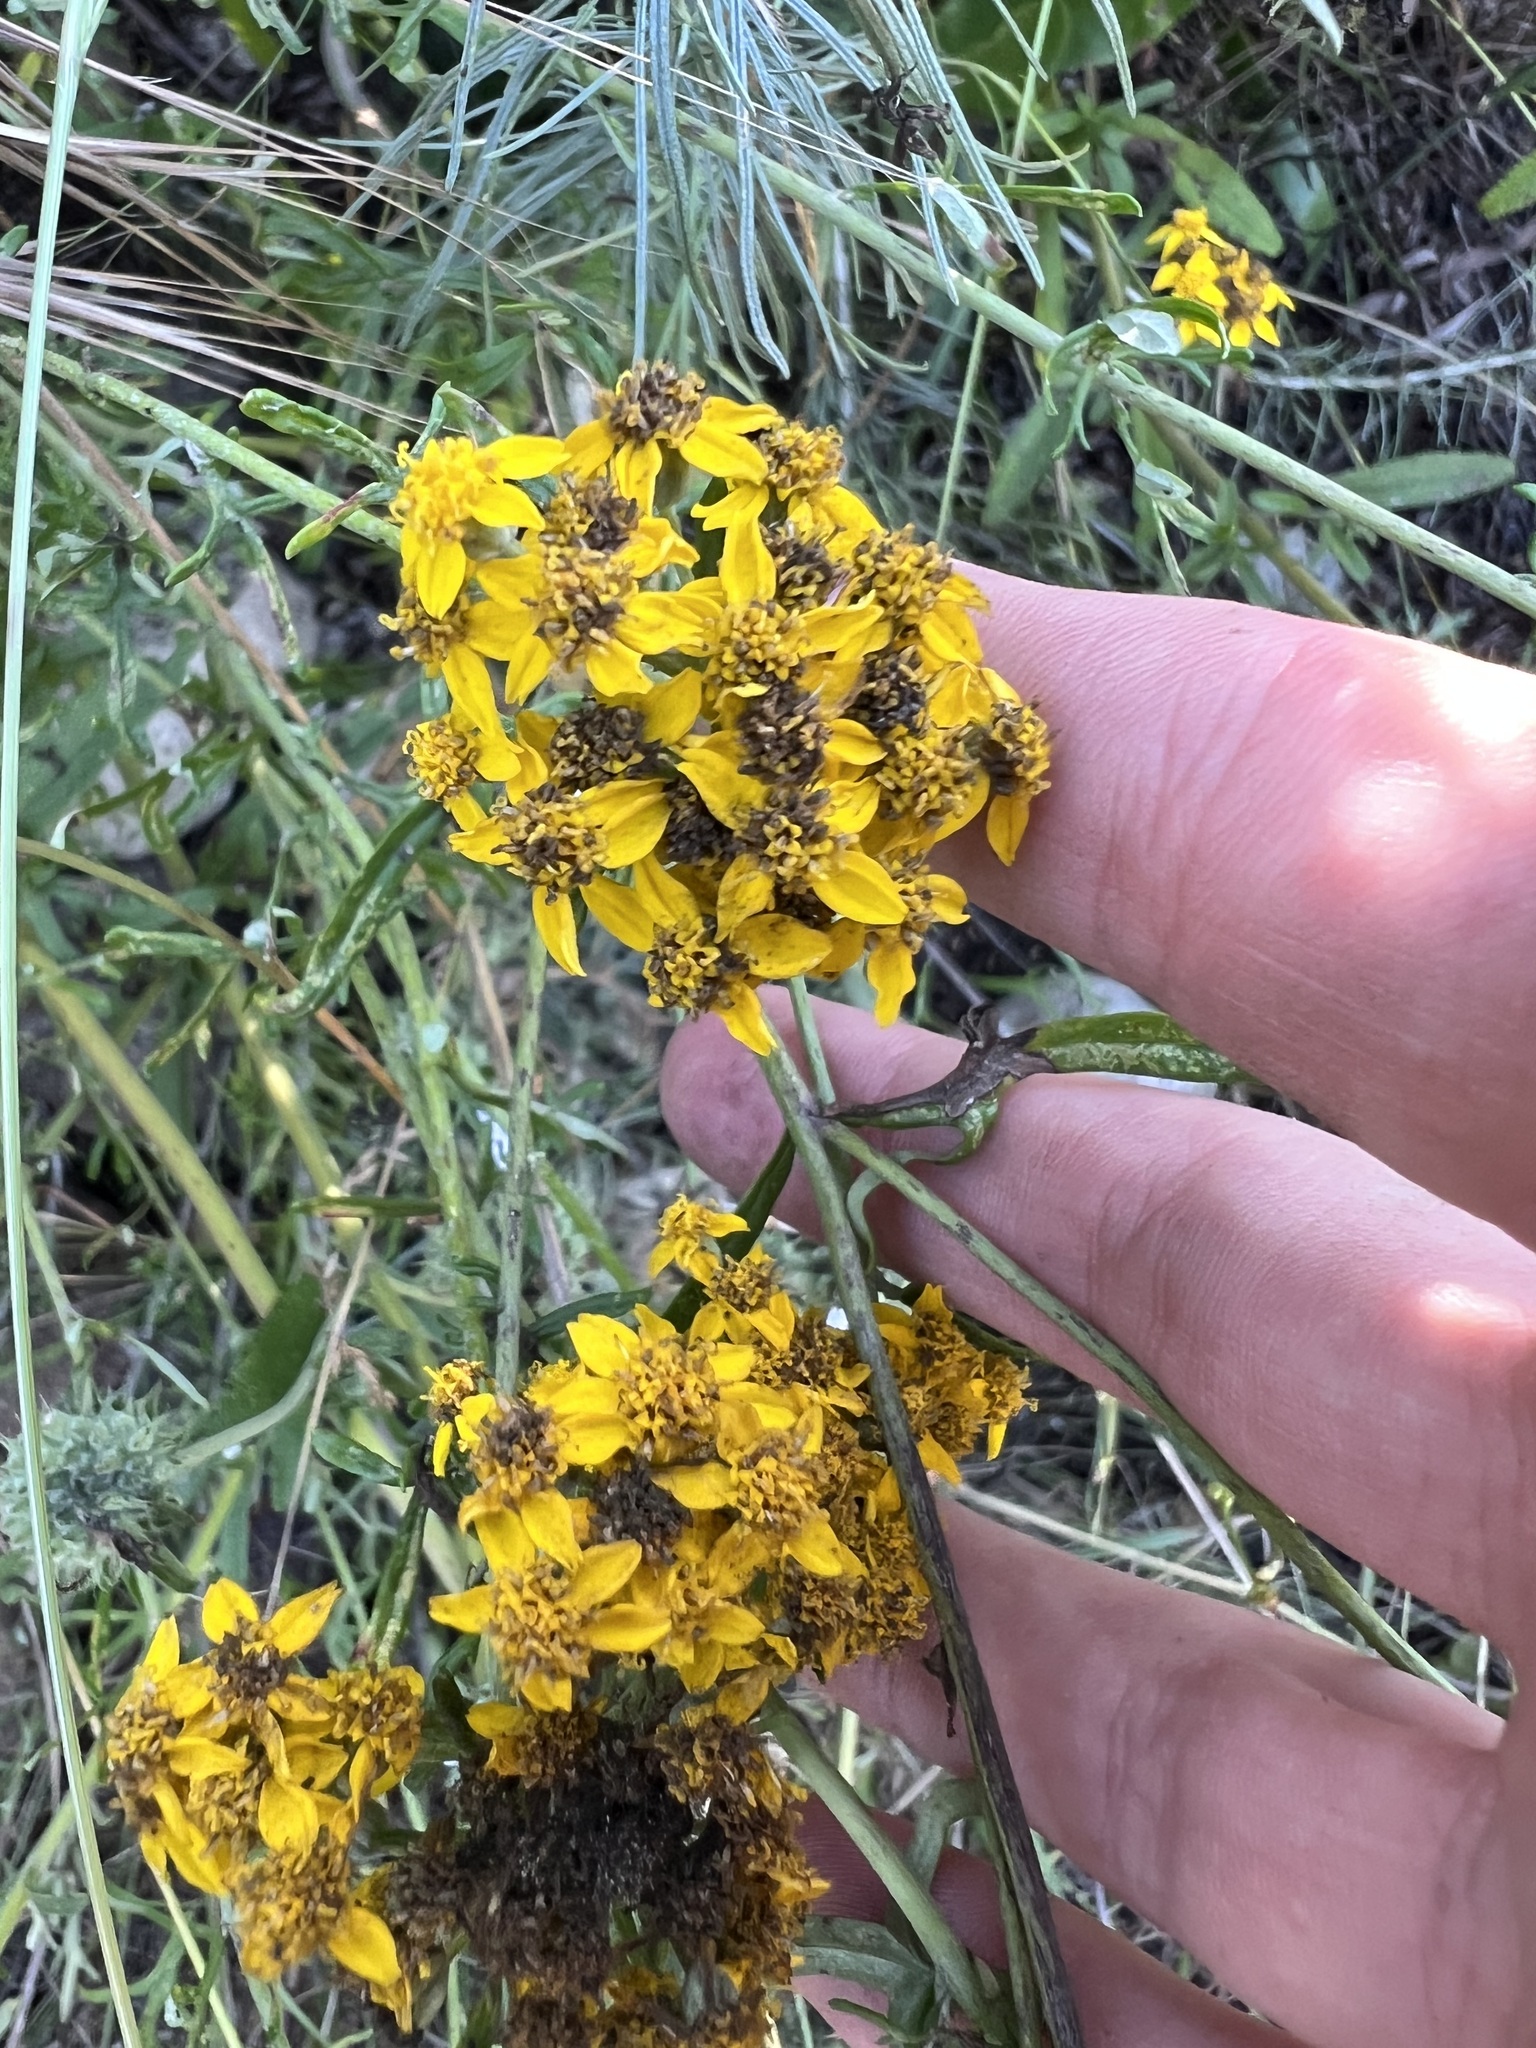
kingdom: Plantae
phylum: Tracheophyta
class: Magnoliopsida
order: Asterales
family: Asteraceae
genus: Eriophyllum
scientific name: Eriophyllum confertiflorum
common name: Golden-yarrow
